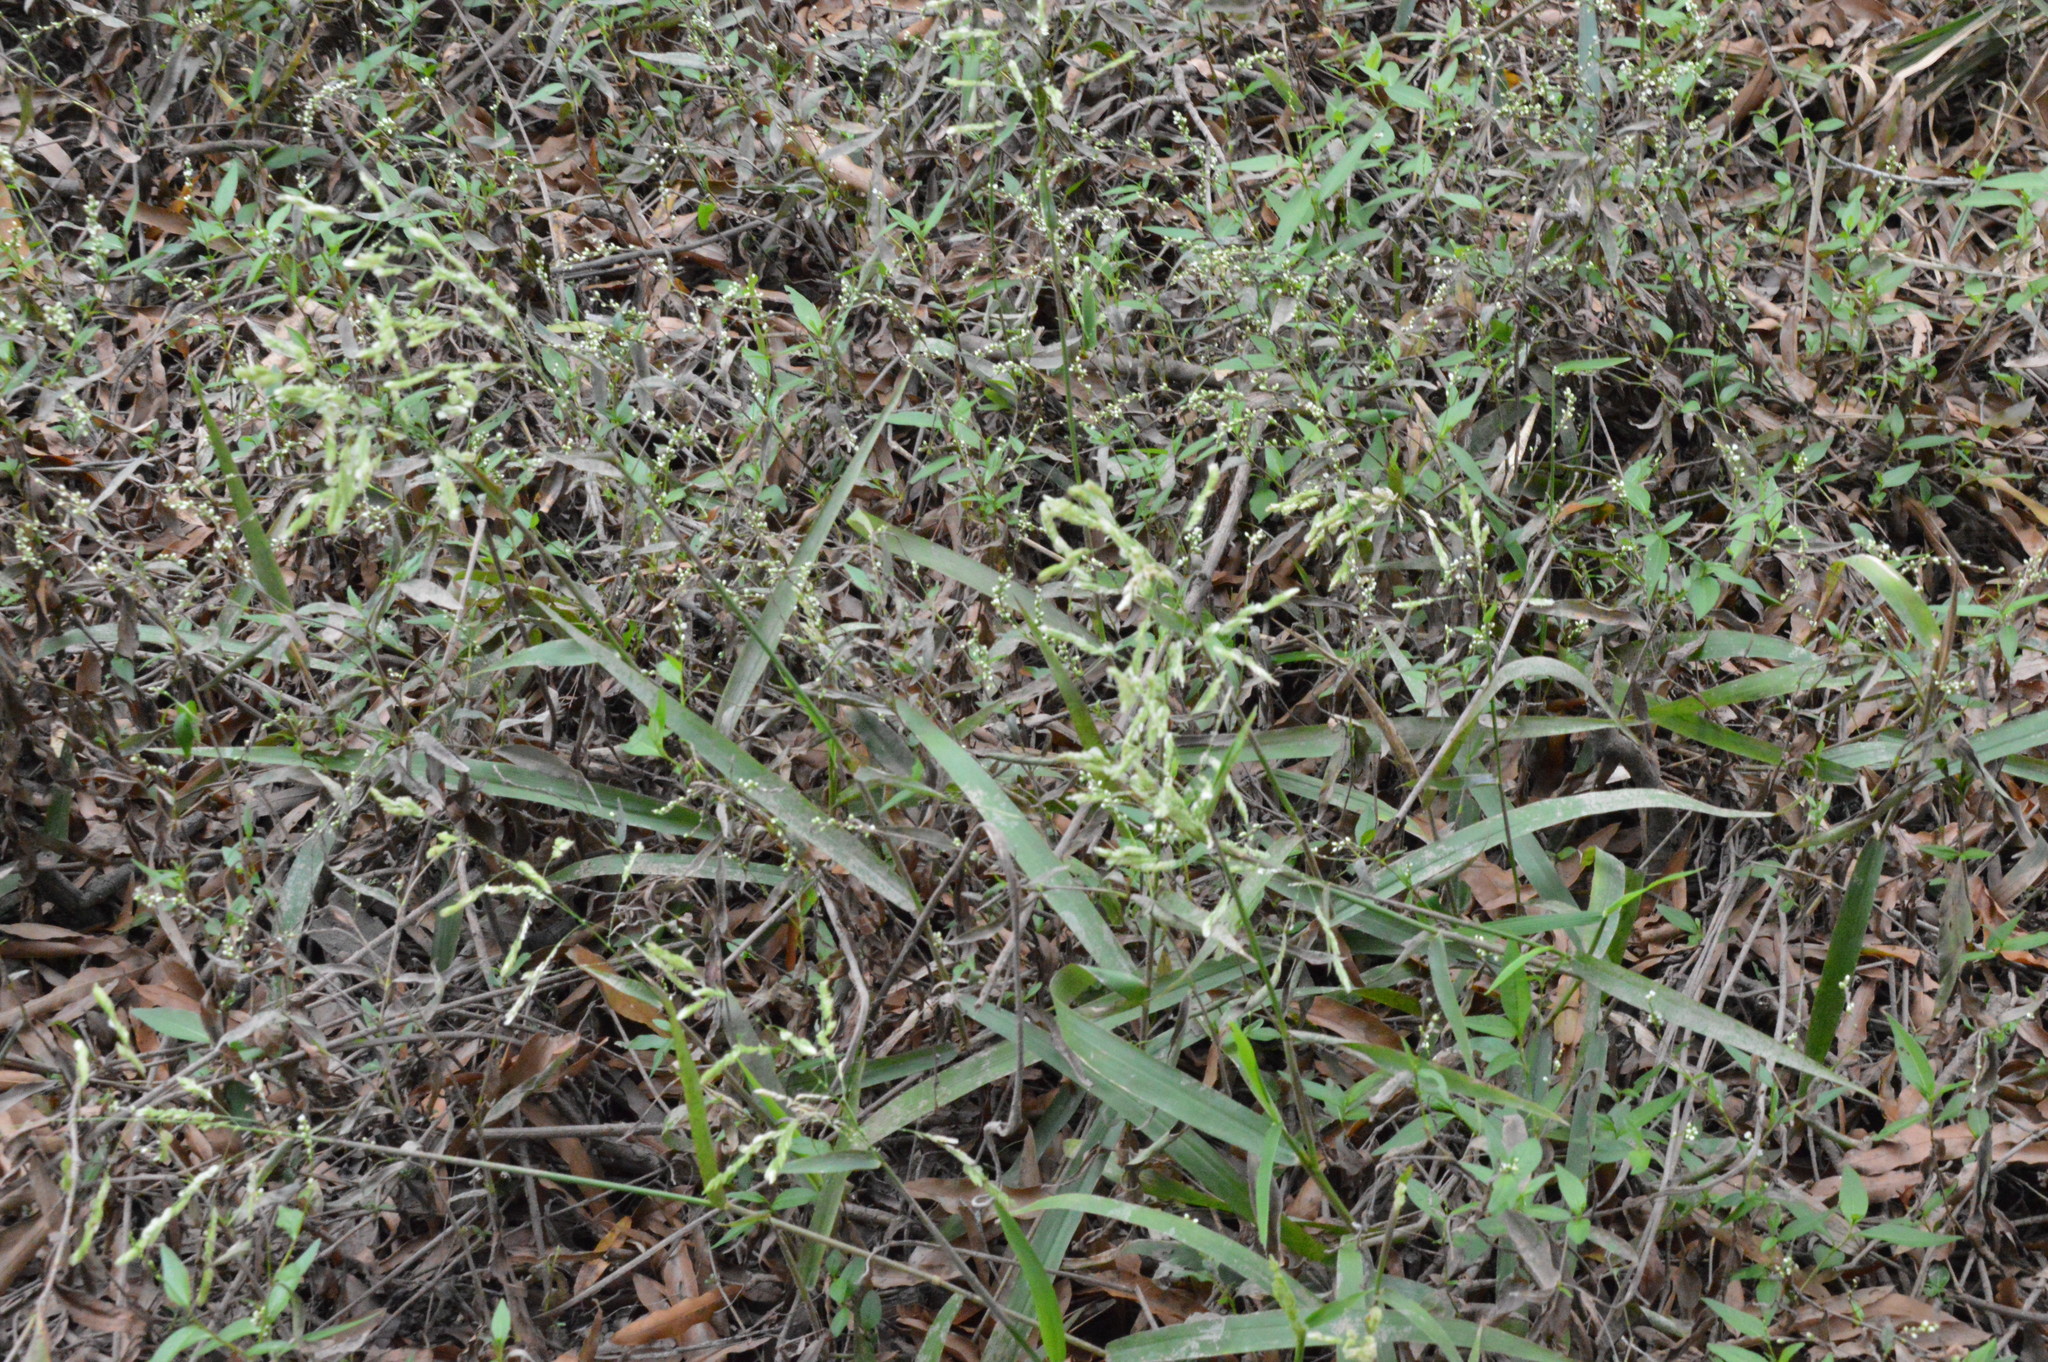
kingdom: Plantae
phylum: Tracheophyta
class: Liliopsida
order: Poales
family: Poaceae
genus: Leersia
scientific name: Leersia lenticularis
